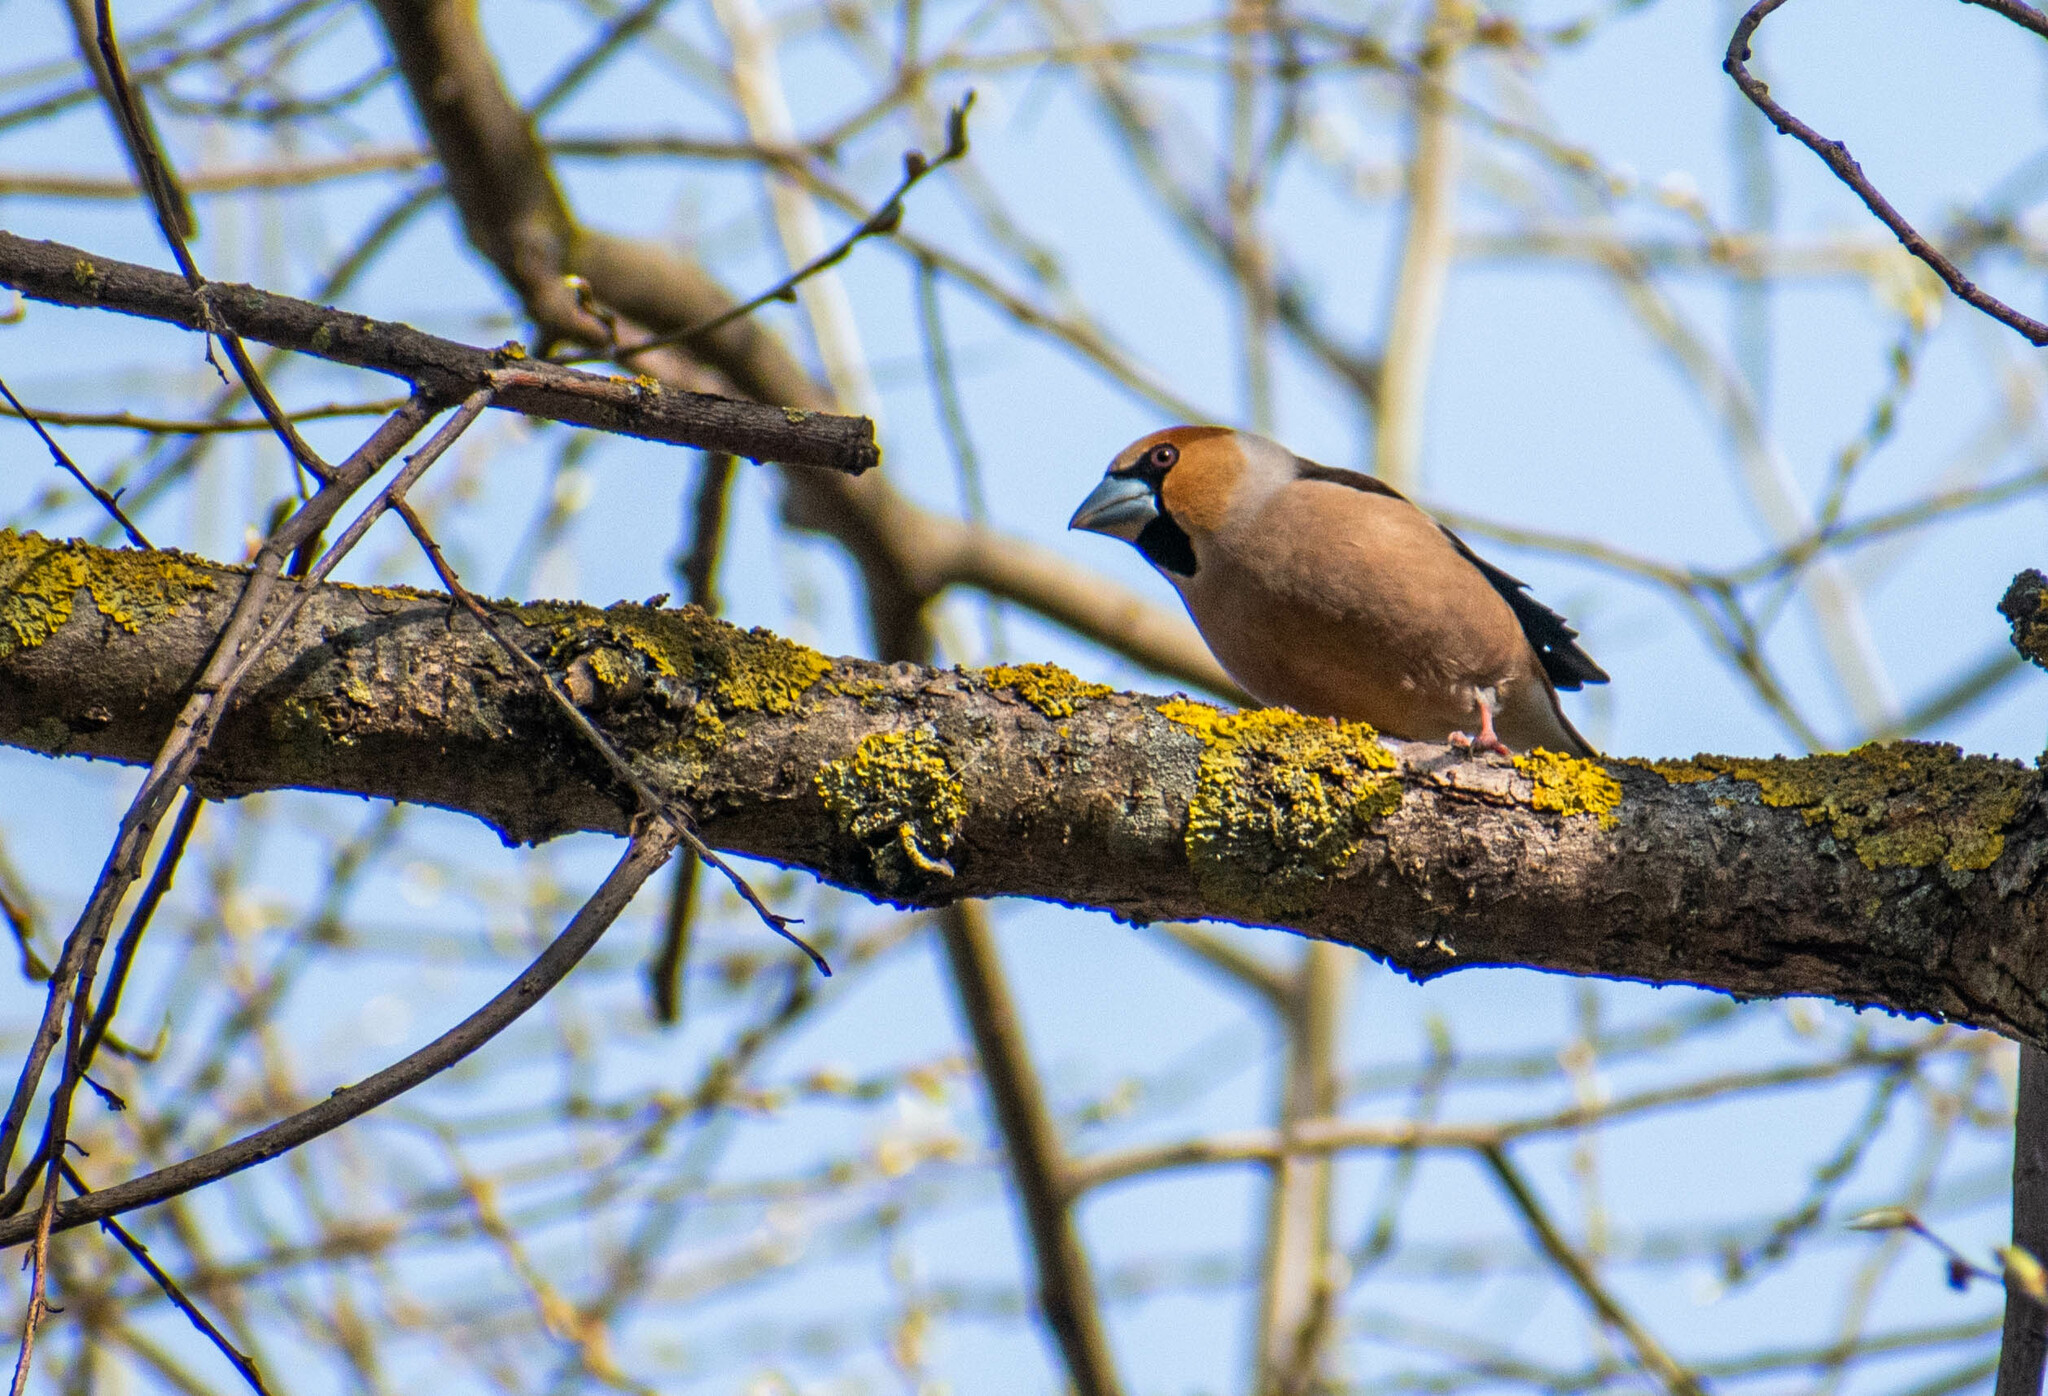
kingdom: Animalia
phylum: Chordata
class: Aves
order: Passeriformes
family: Fringillidae
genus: Coccothraustes
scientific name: Coccothraustes coccothraustes
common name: Hawfinch
